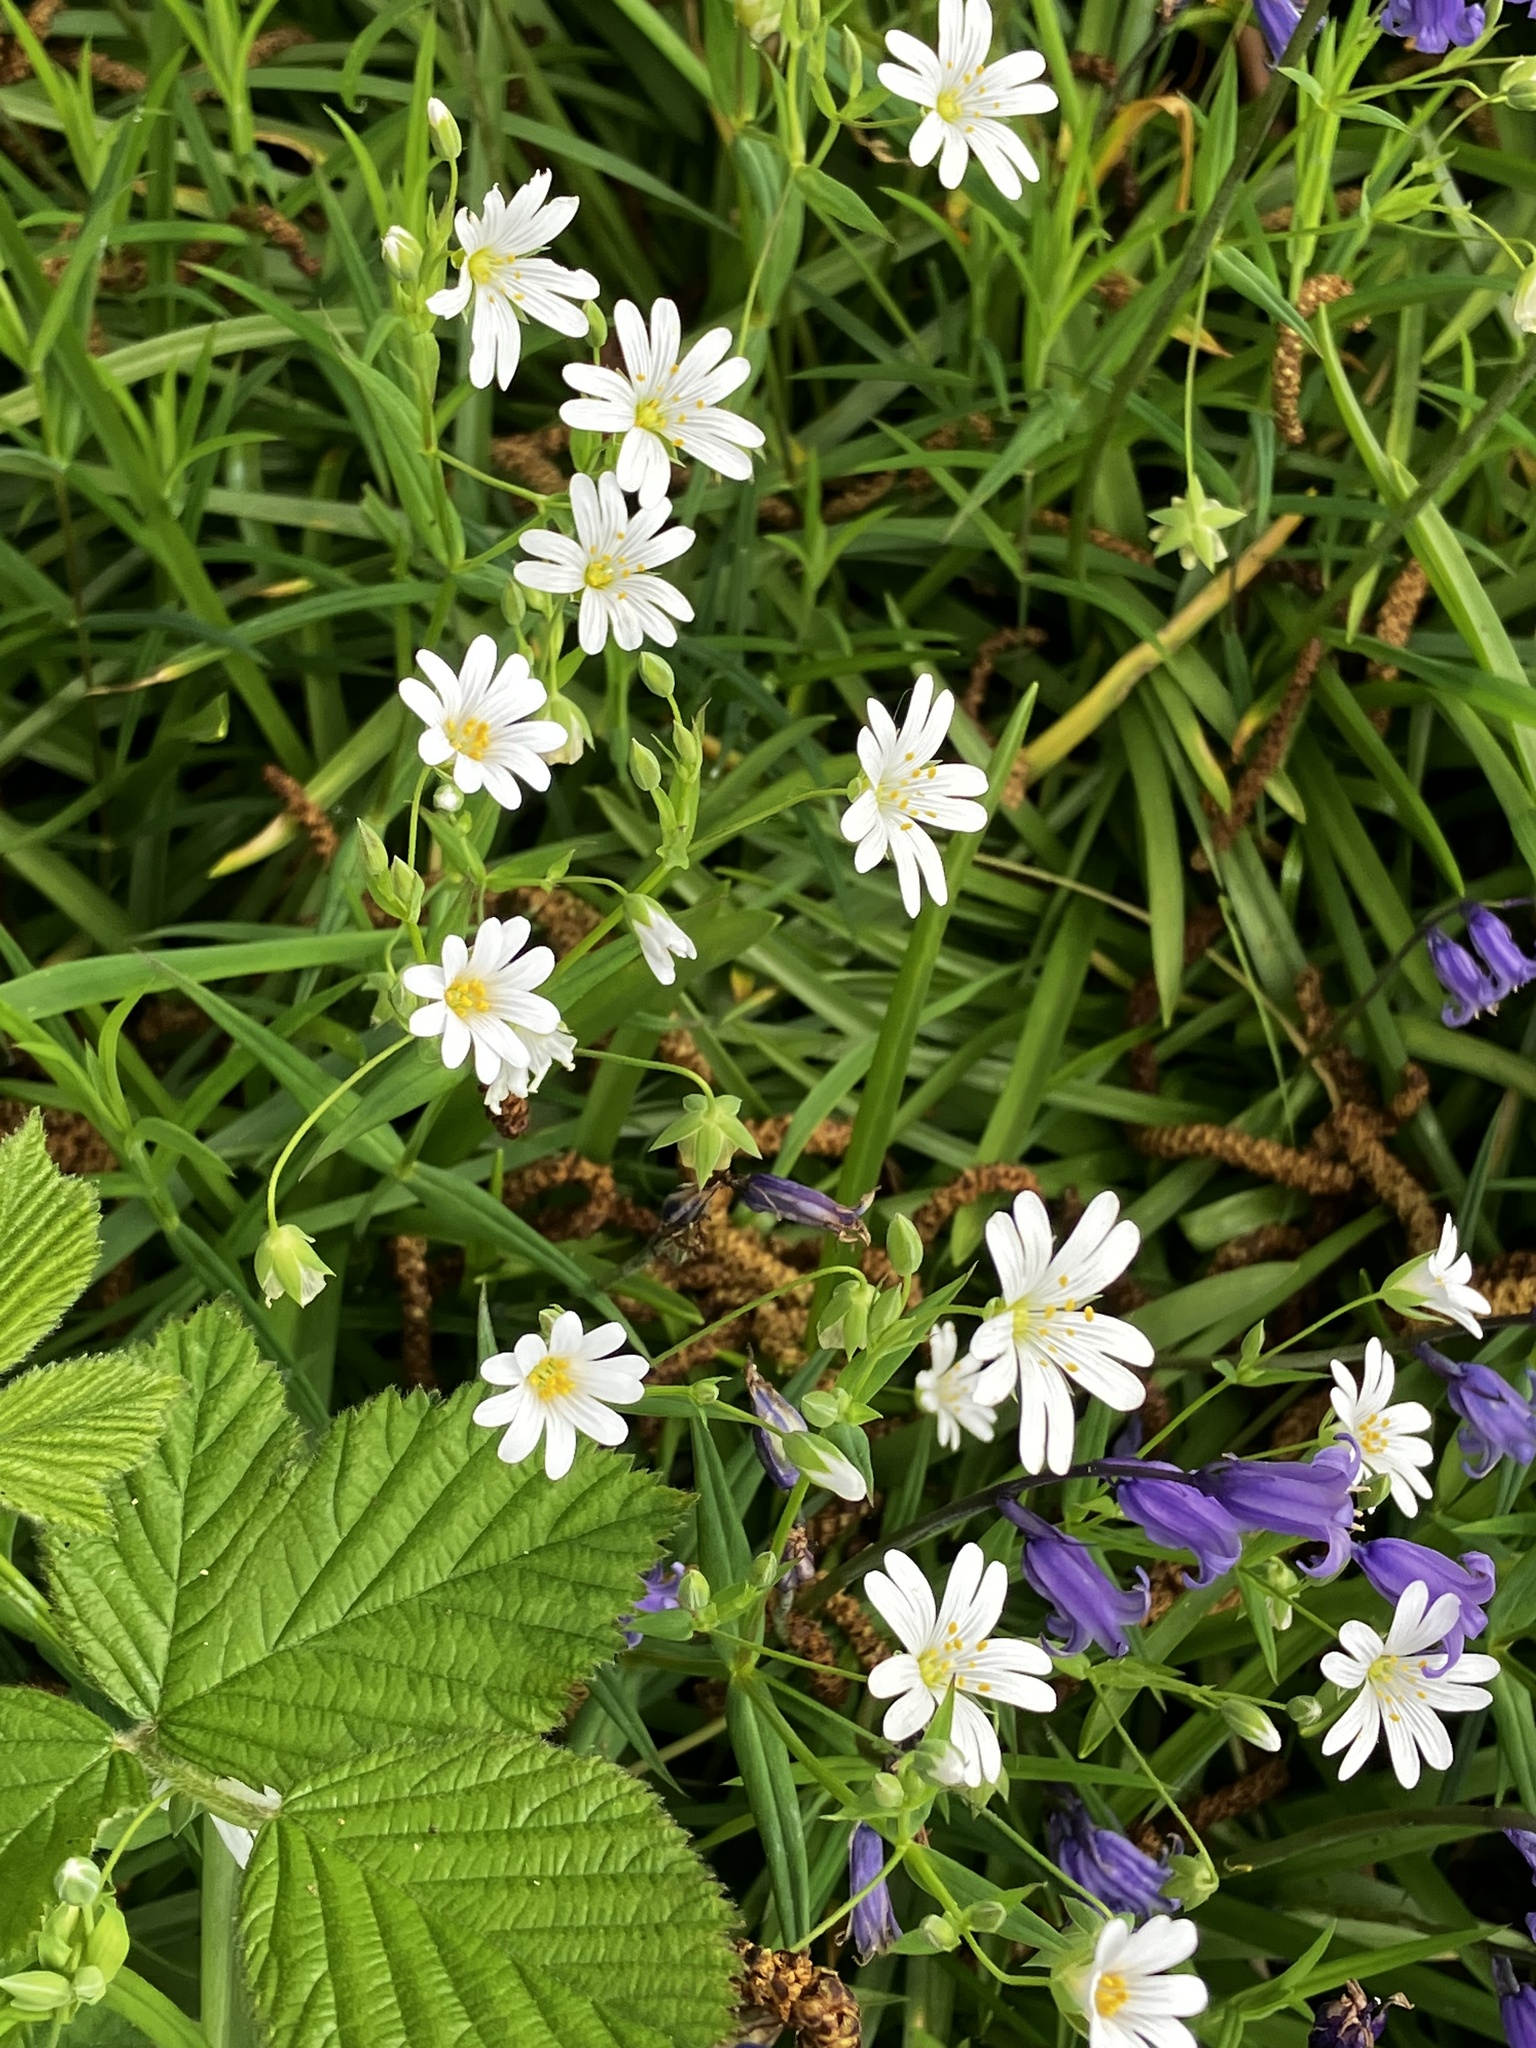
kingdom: Plantae
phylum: Tracheophyta
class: Magnoliopsida
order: Caryophyllales
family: Caryophyllaceae
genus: Rabelera
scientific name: Rabelera holostea
